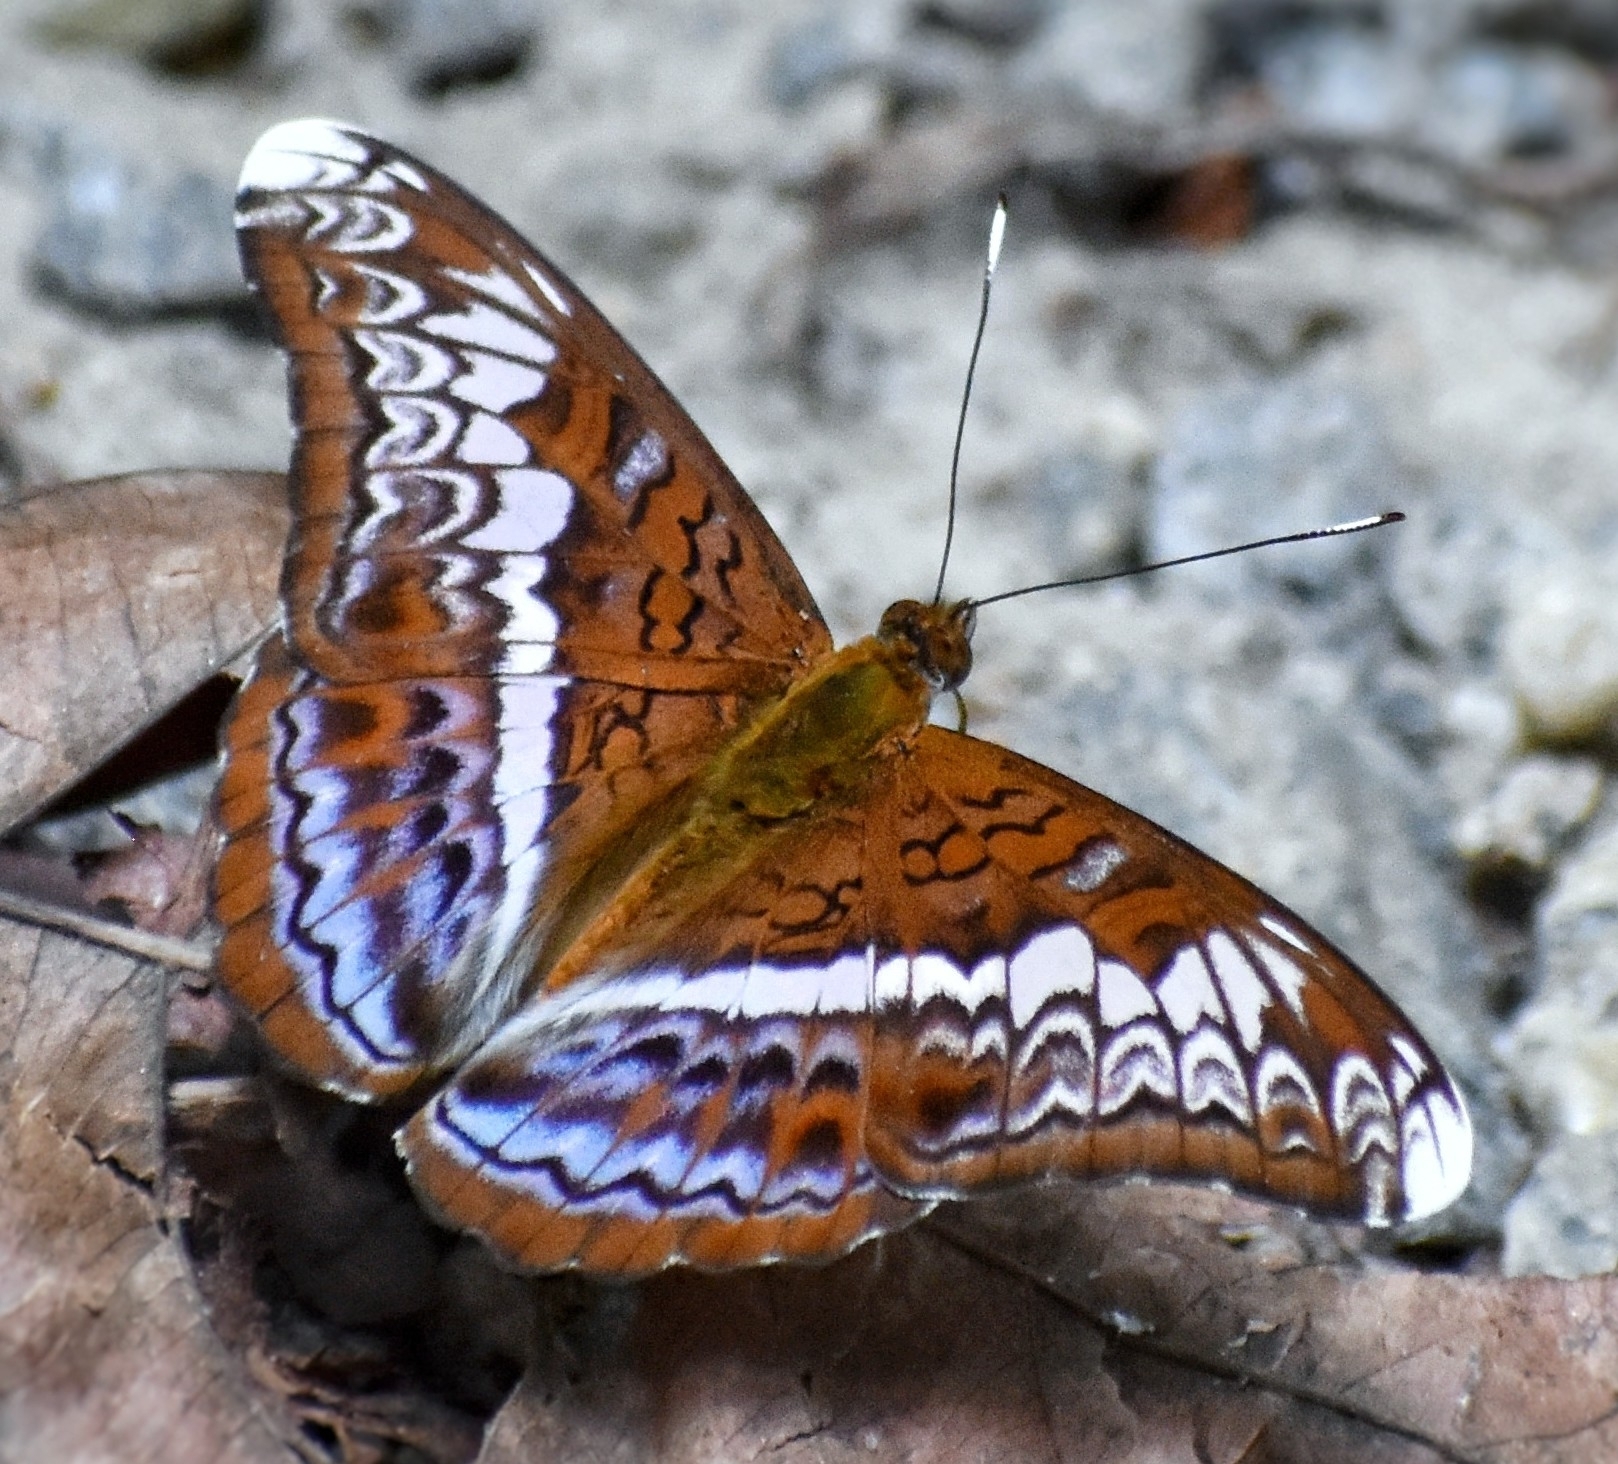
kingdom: Animalia
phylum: Arthropoda
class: Insecta
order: Lepidoptera
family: Nymphalidae
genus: Lebadea
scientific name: Lebadea martha
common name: Knight
